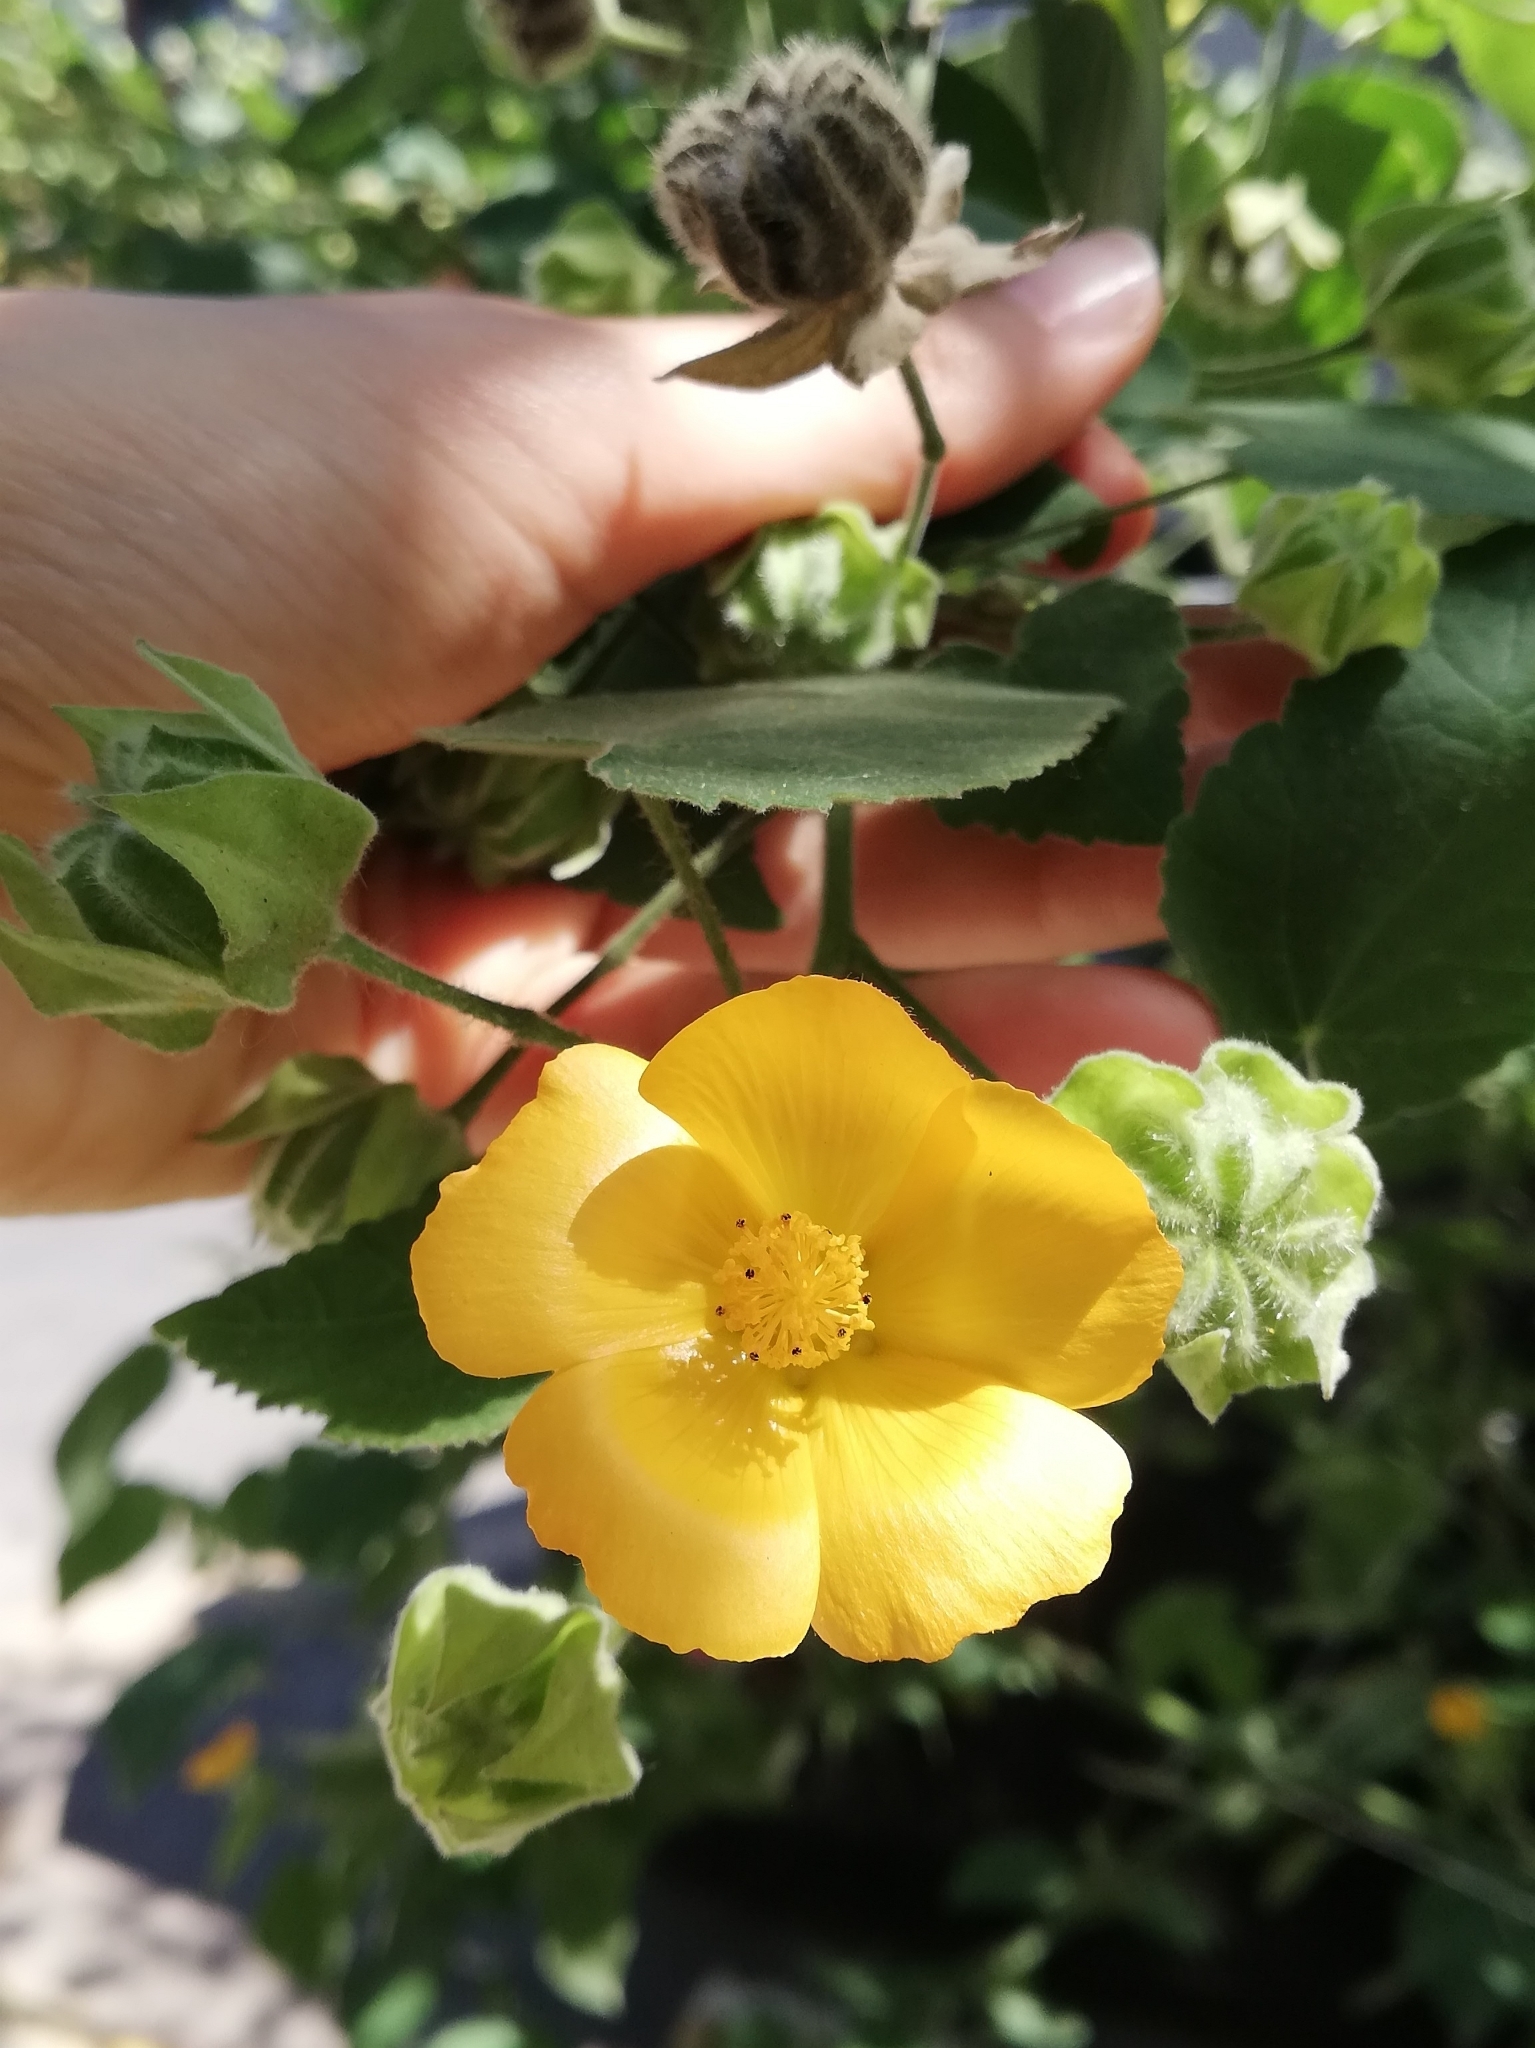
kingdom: Plantae
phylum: Tracheophyta
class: Magnoliopsida
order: Malvales
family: Malvaceae
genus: Abutilon
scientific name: Abutilon grandifolium
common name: Hairy abutilon
